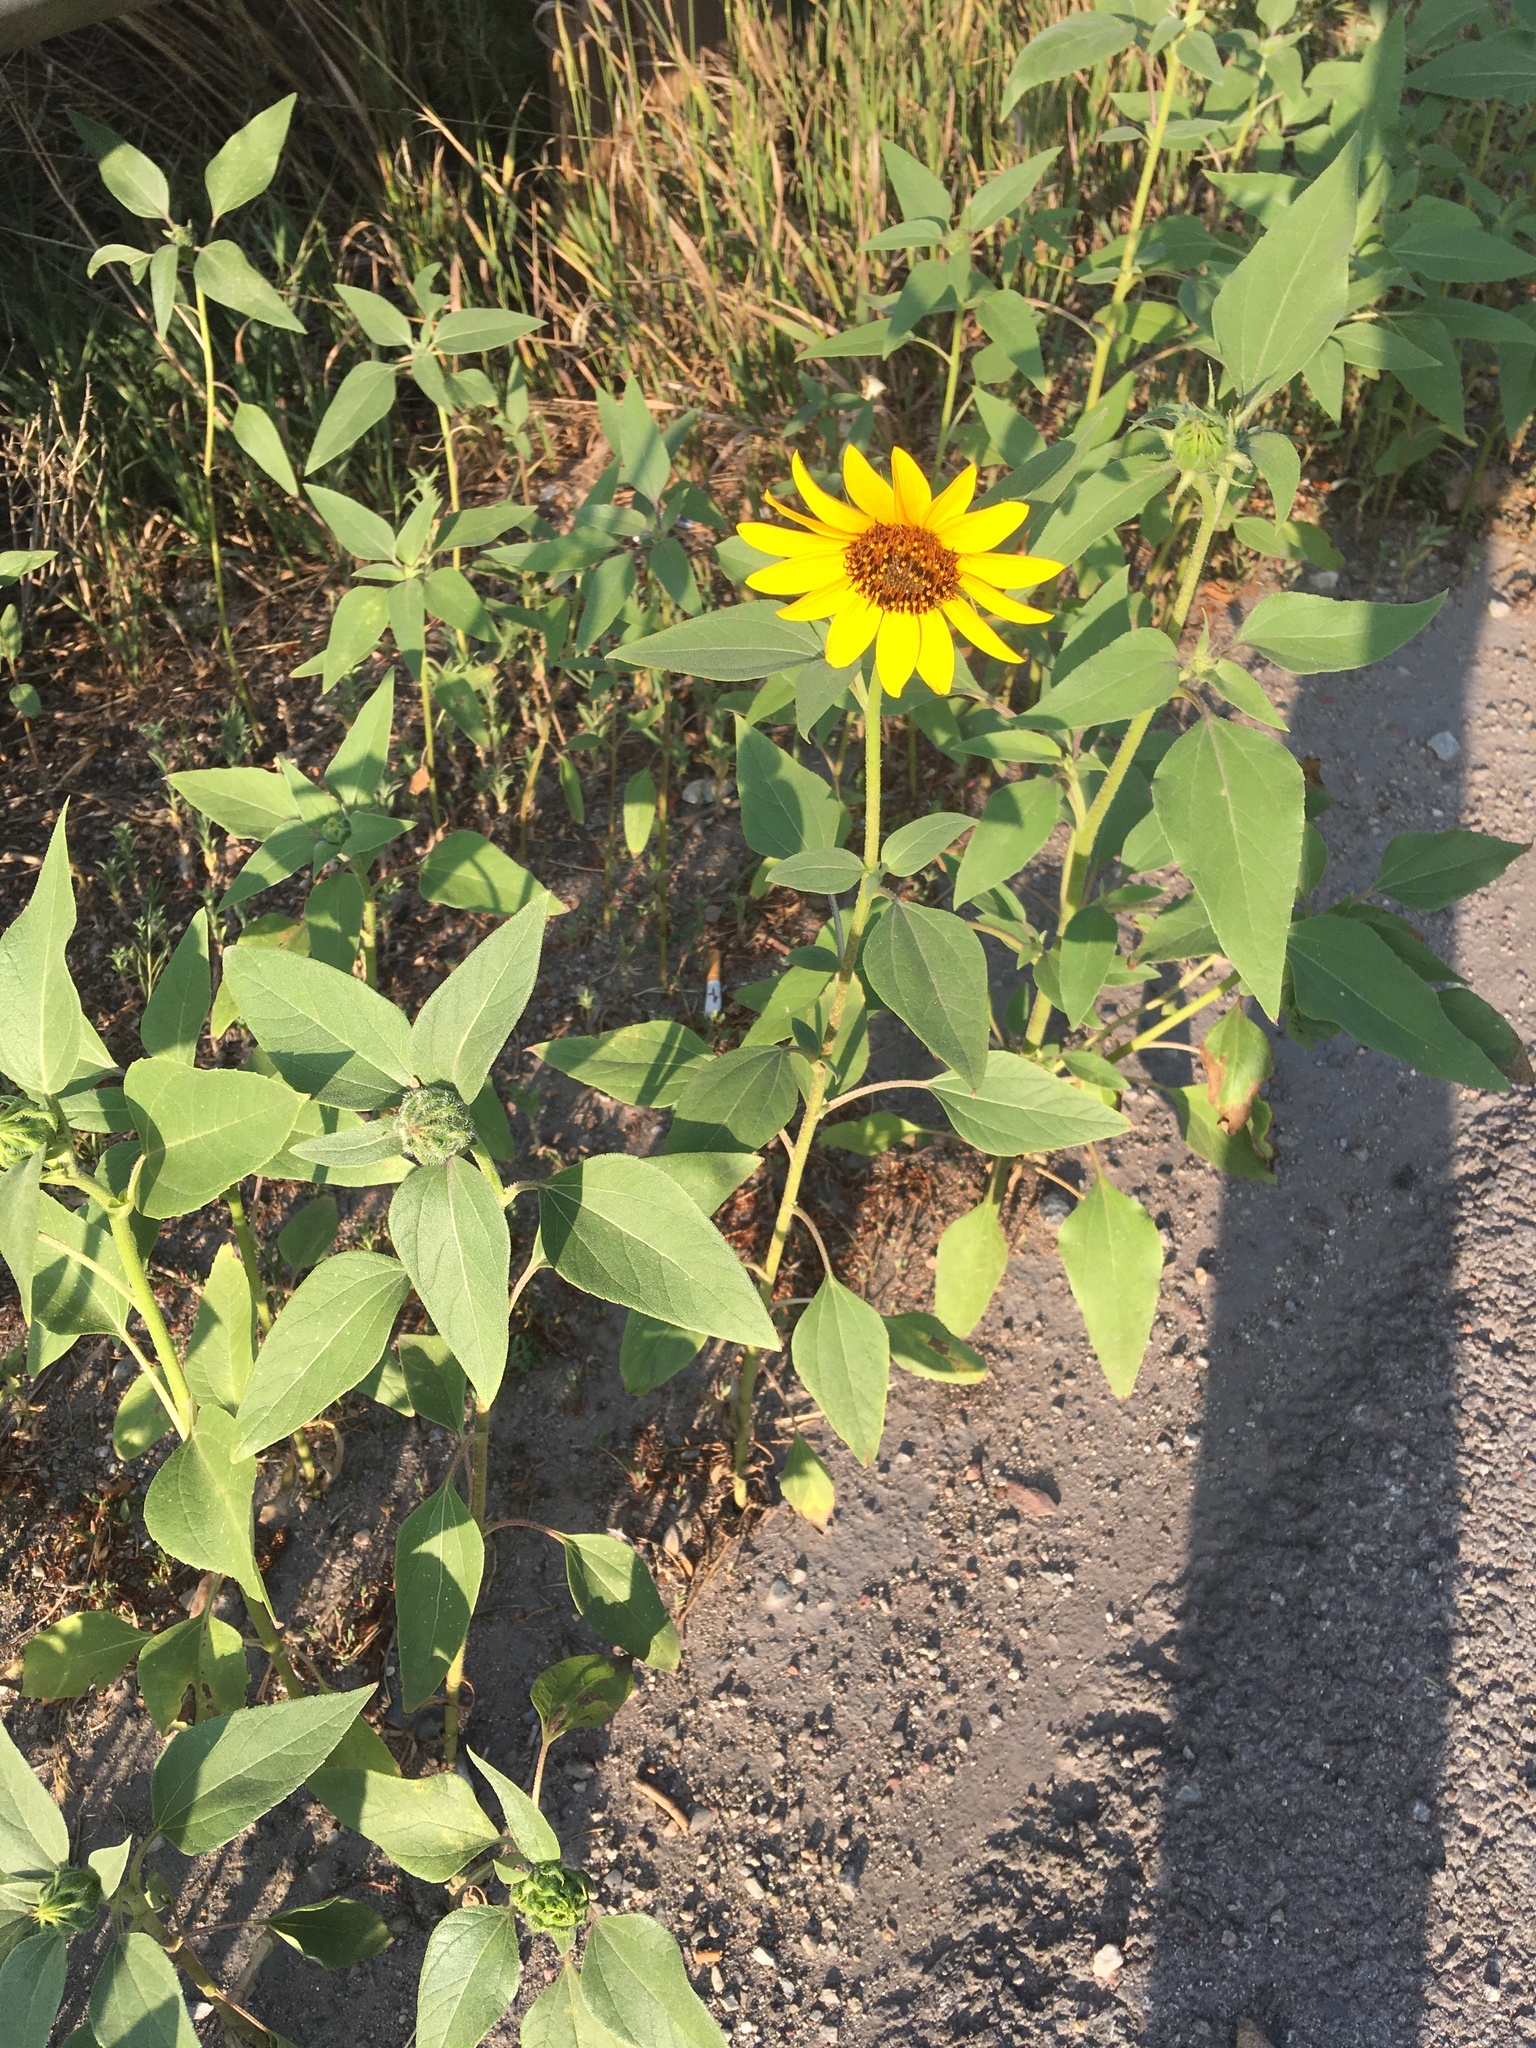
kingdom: Plantae
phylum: Tracheophyta
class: Magnoliopsida
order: Asterales
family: Asteraceae
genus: Helianthus
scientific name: Helianthus annuus
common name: Sunflower
